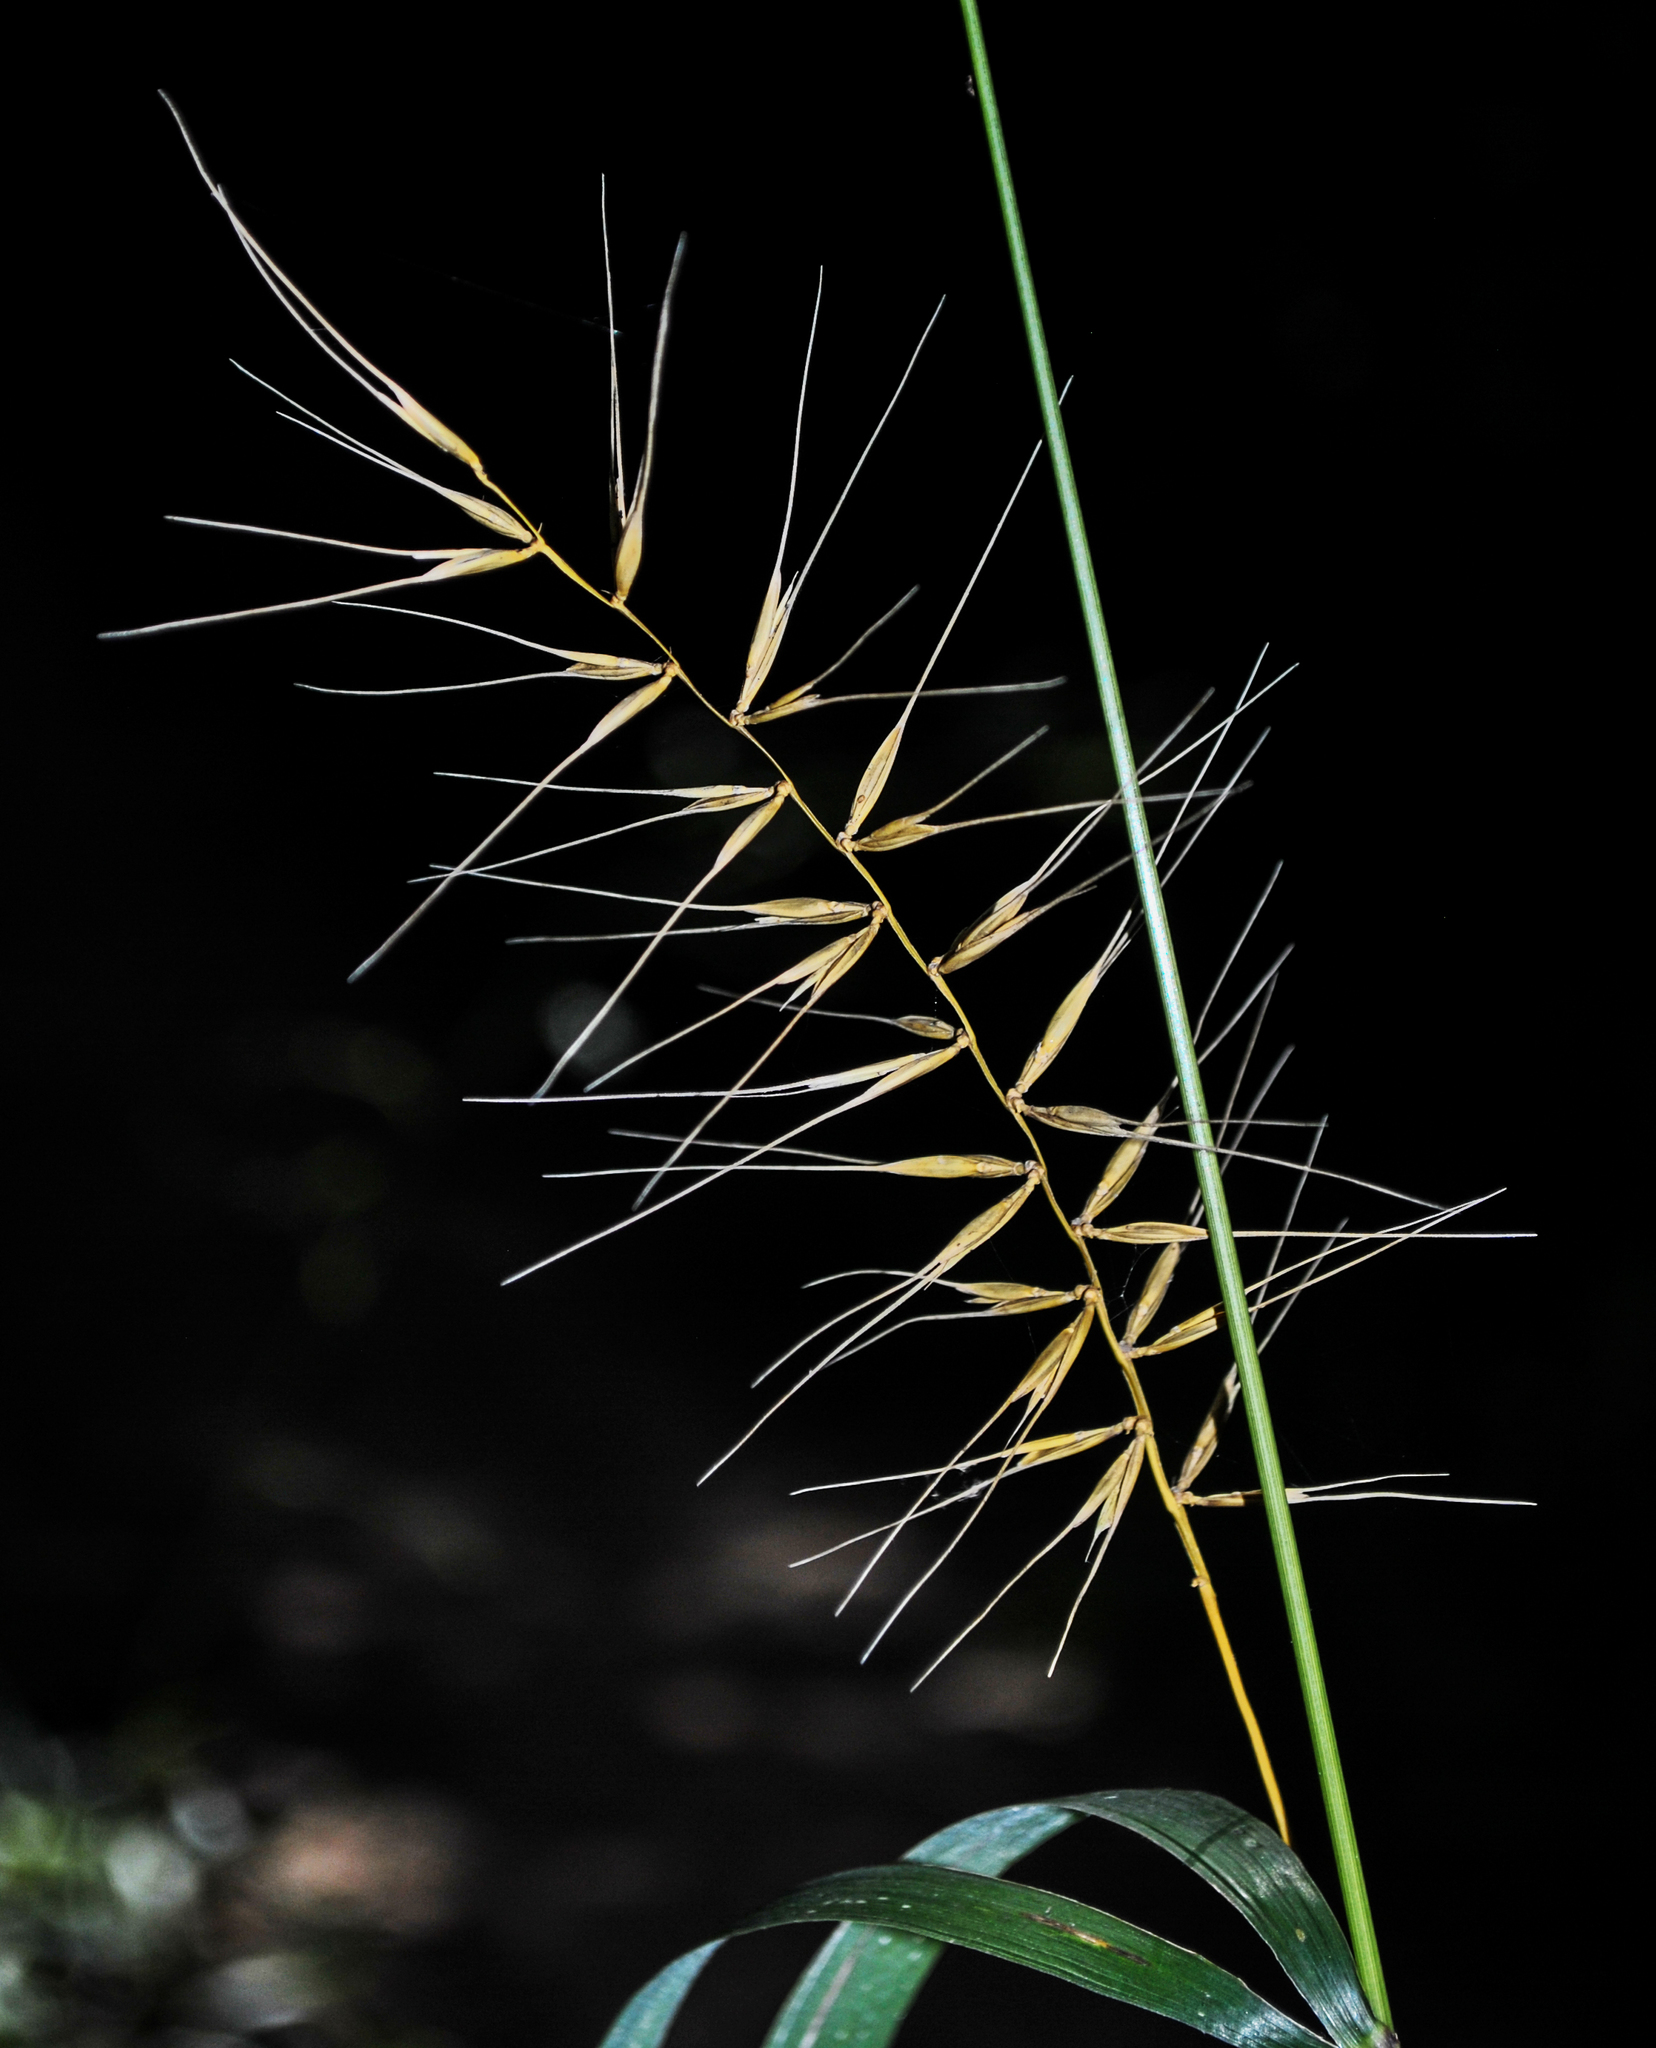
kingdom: Plantae
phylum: Tracheophyta
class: Liliopsida
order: Poales
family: Poaceae
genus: Elymus
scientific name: Elymus hystrix
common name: Bottlebrush grass
